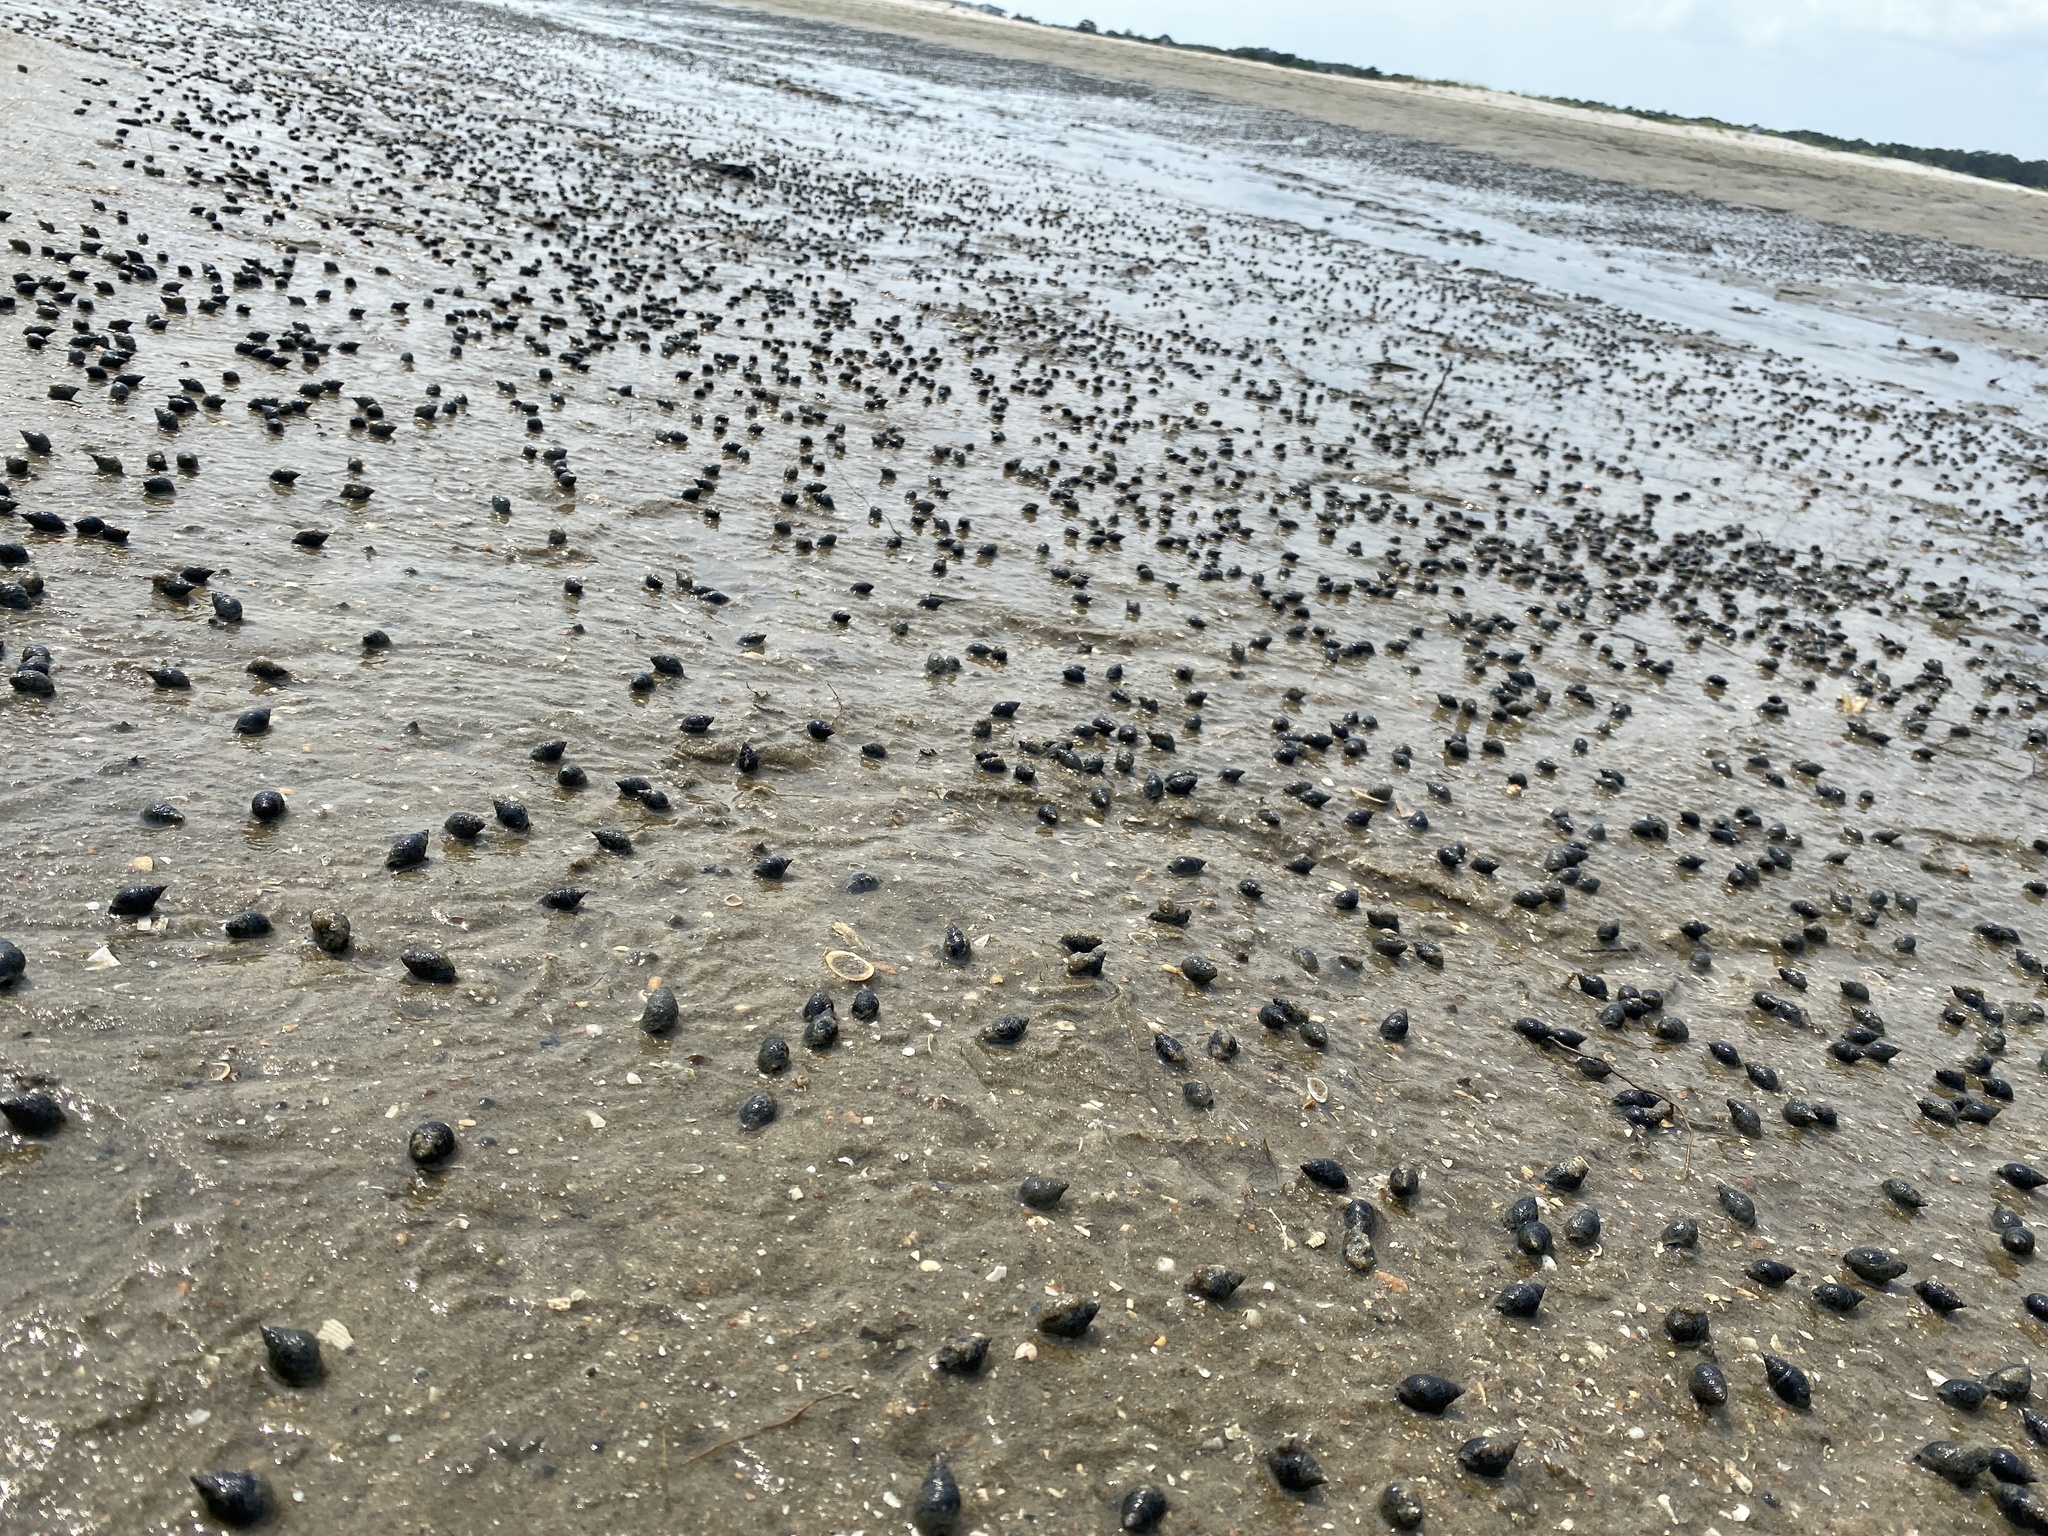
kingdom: Animalia
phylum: Mollusca
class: Gastropoda
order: Neogastropoda
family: Nassariidae
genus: Ilyanassa
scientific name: Ilyanassa obsoleta
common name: Eastern mudsnail
